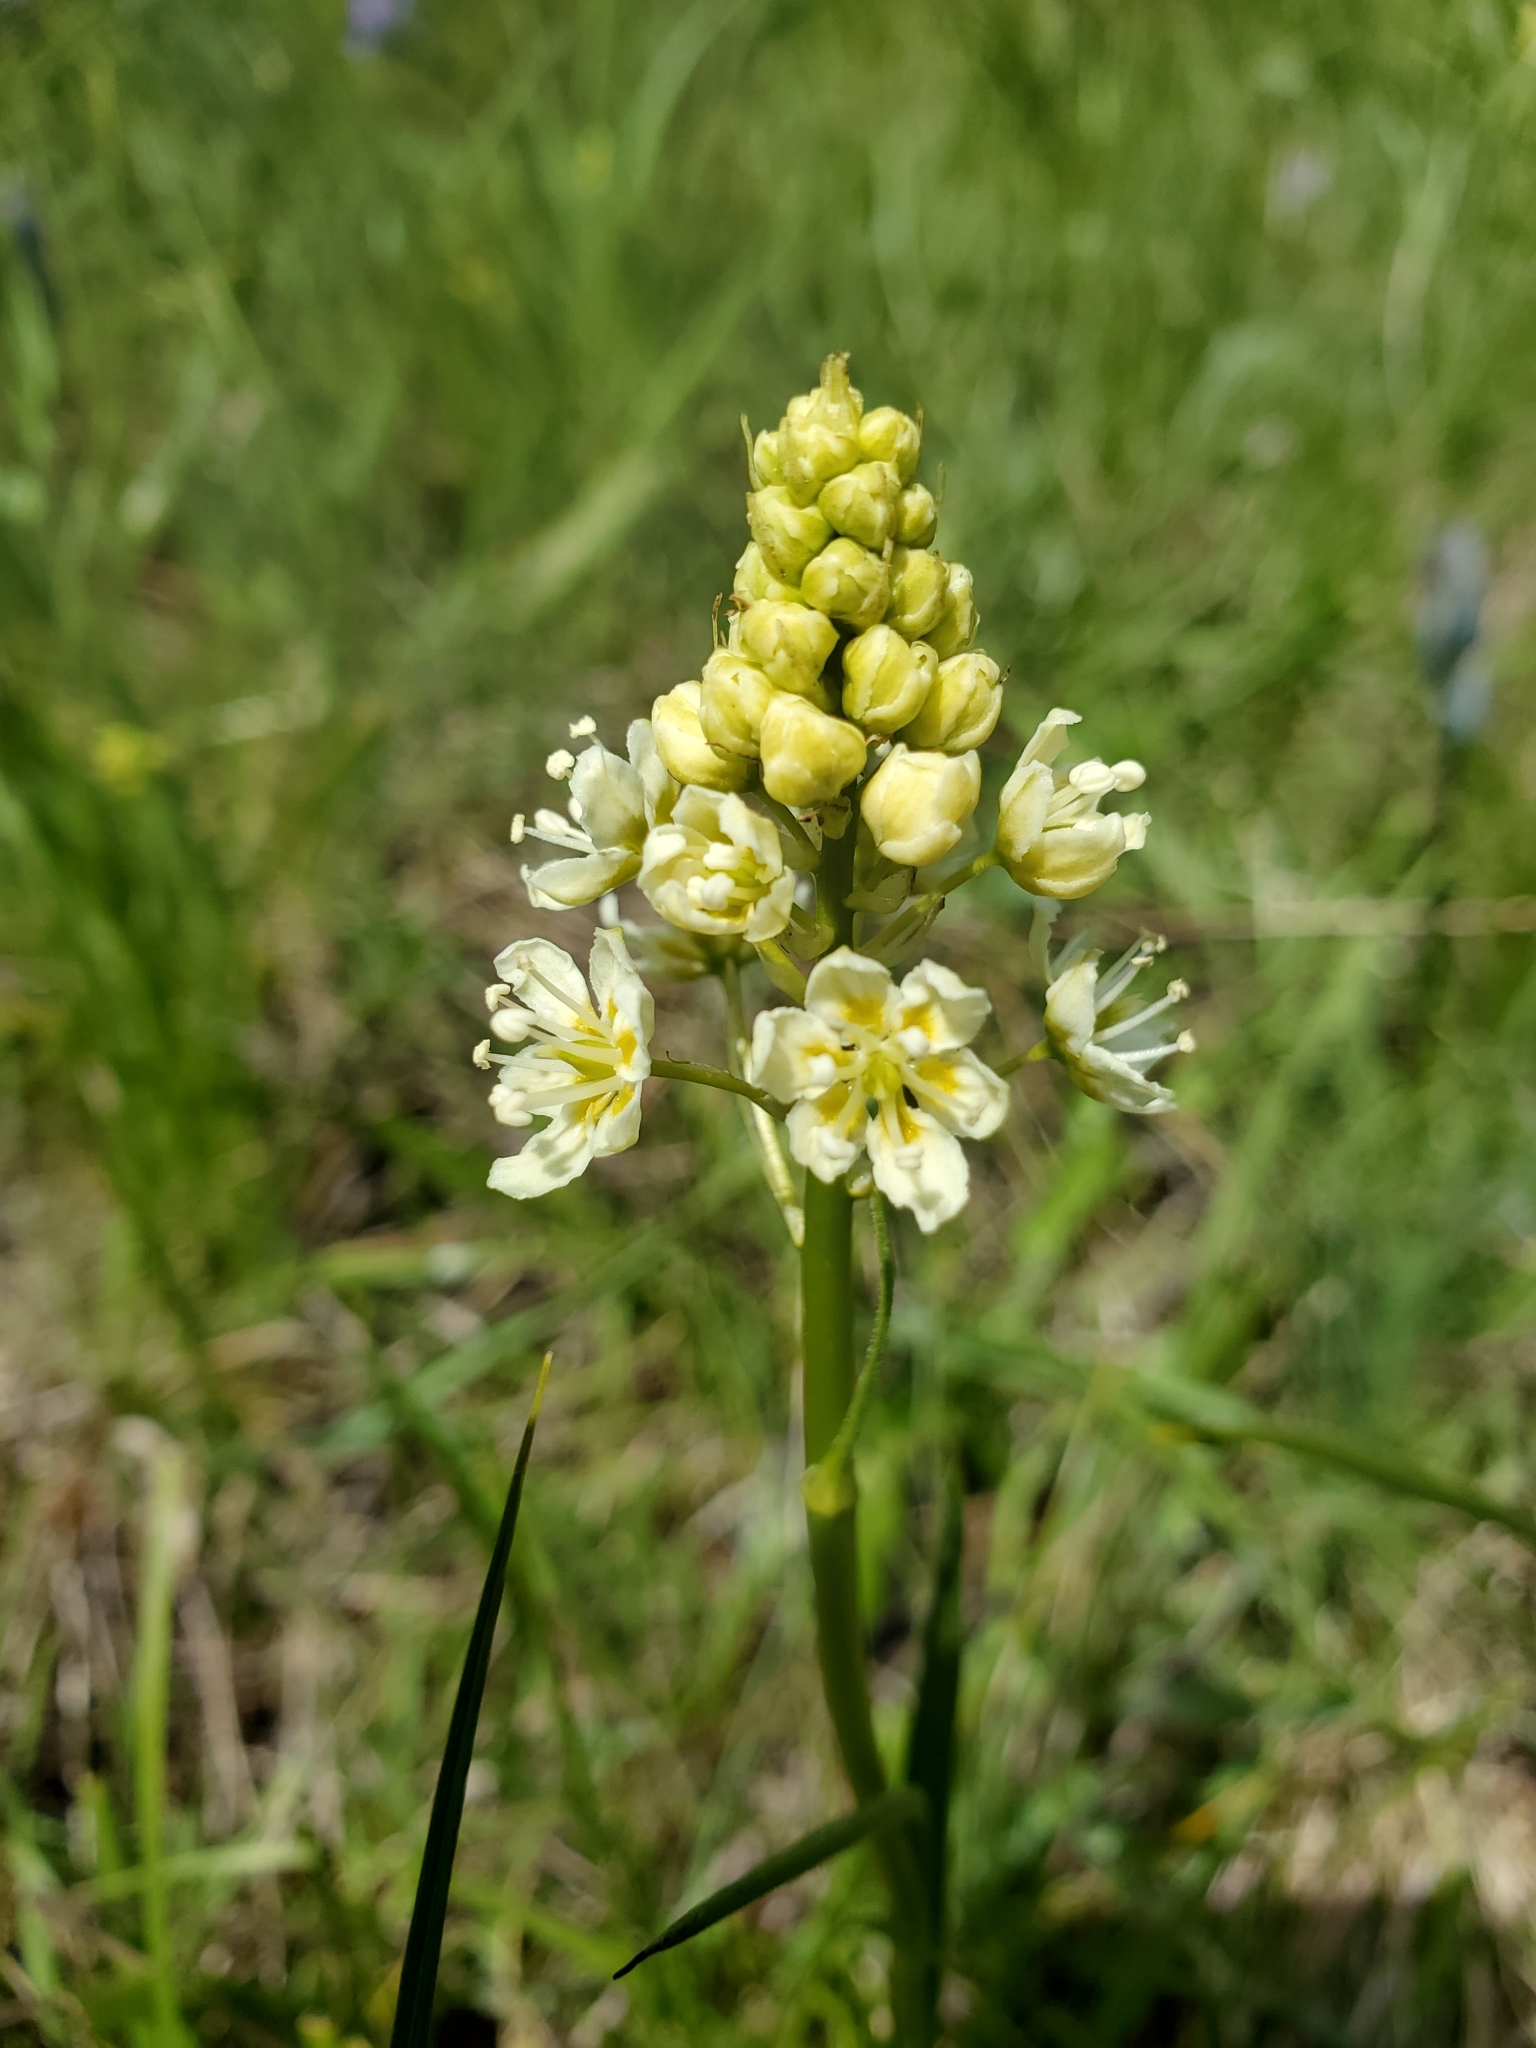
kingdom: Plantae
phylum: Tracheophyta
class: Liliopsida
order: Liliales
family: Melanthiaceae
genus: Toxicoscordion
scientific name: Toxicoscordion venenosum
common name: Meadow death camas
